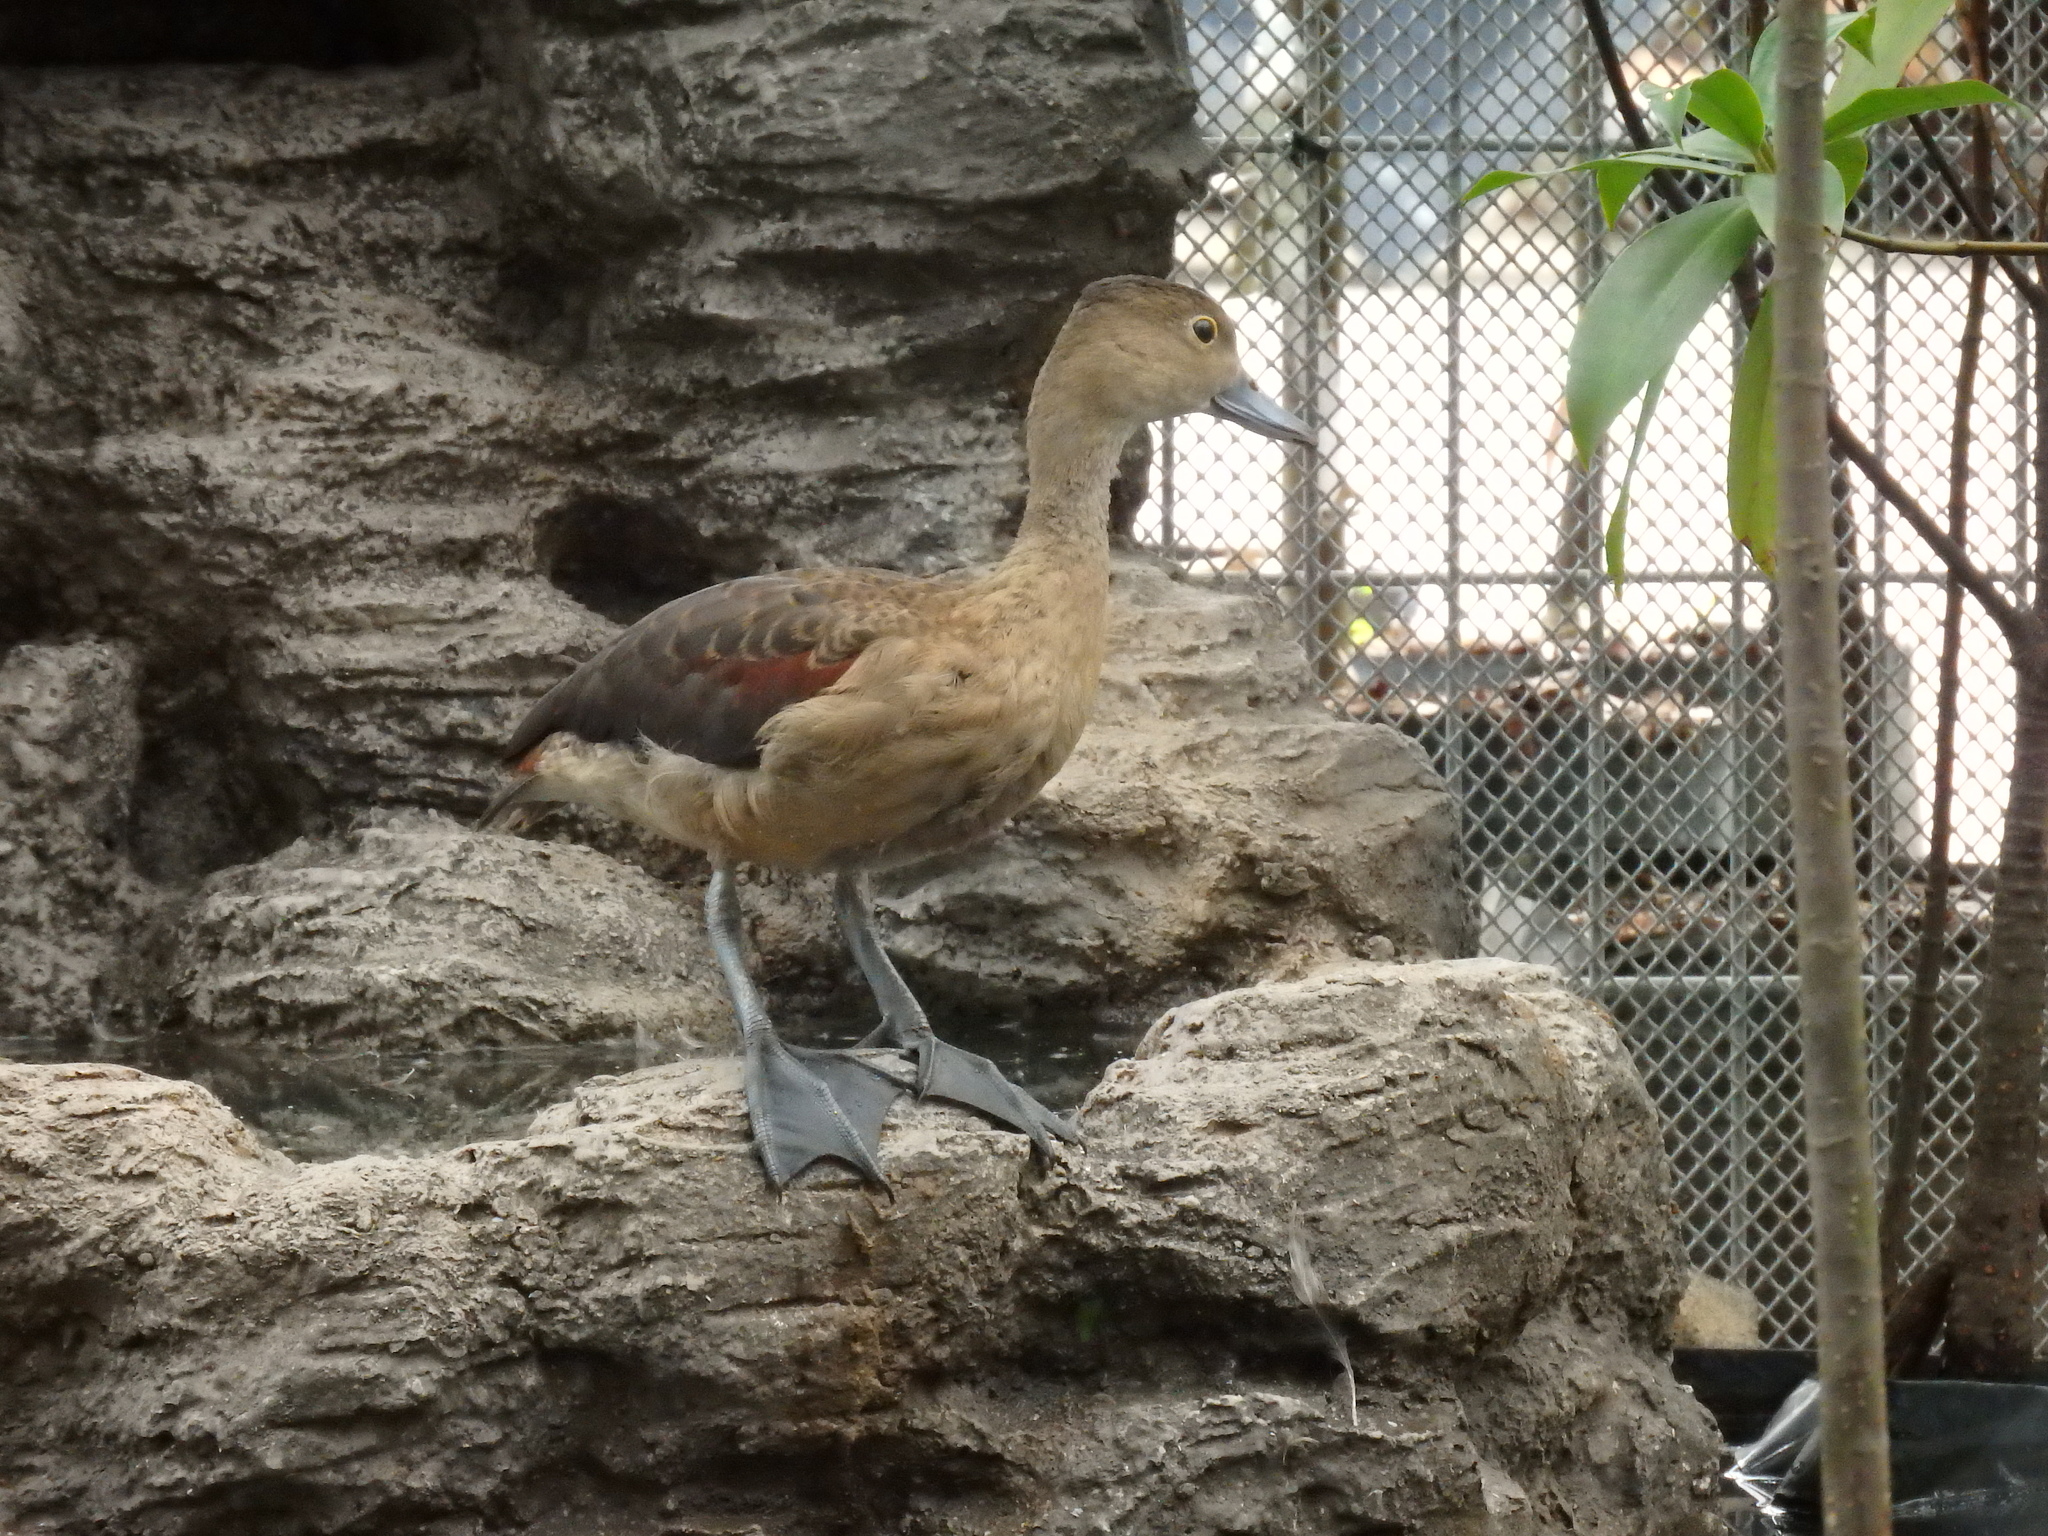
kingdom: Animalia
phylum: Chordata
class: Aves
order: Anseriformes
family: Anatidae
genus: Dendrocygna
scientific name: Dendrocygna javanica
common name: Lesser whistling-duck
